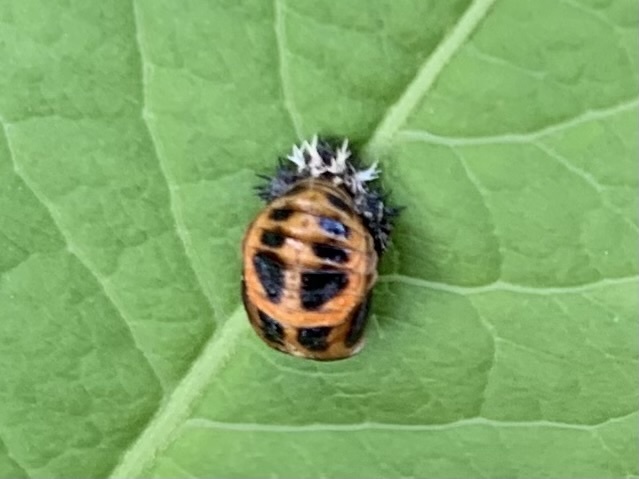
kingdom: Animalia
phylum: Arthropoda
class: Insecta
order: Coleoptera
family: Coccinellidae
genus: Harmonia
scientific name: Harmonia axyridis
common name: Harlequin ladybird
